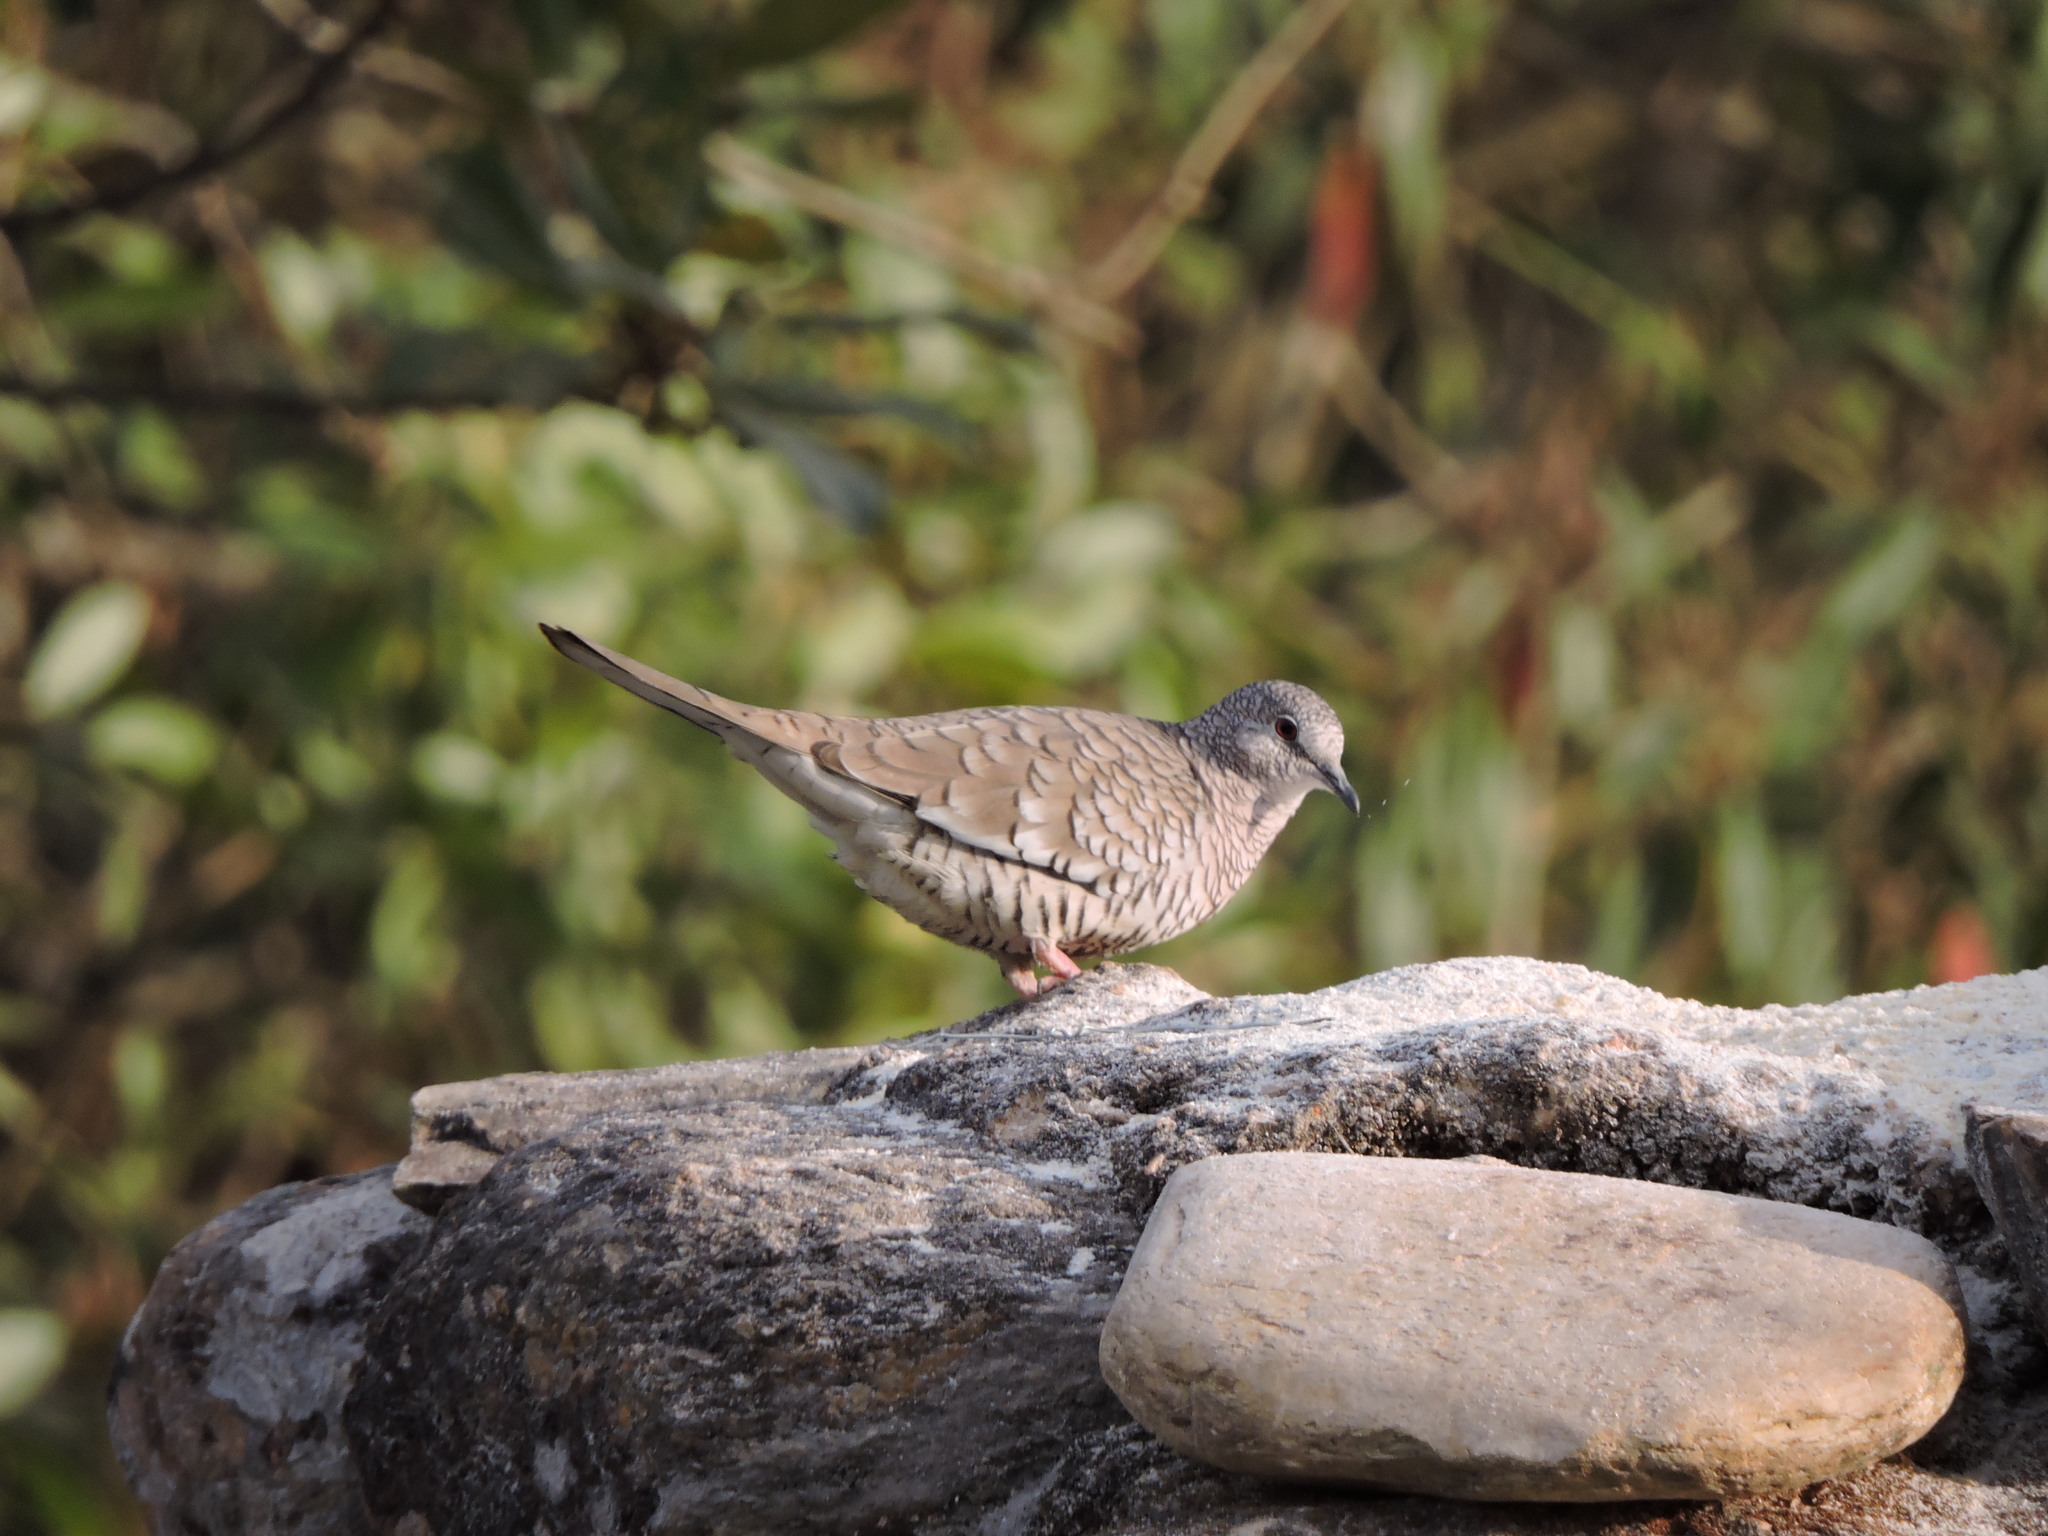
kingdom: Animalia
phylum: Chordata
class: Aves
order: Columbiformes
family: Columbidae
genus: Columbina
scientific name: Columbina squammata
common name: Scaled dove
